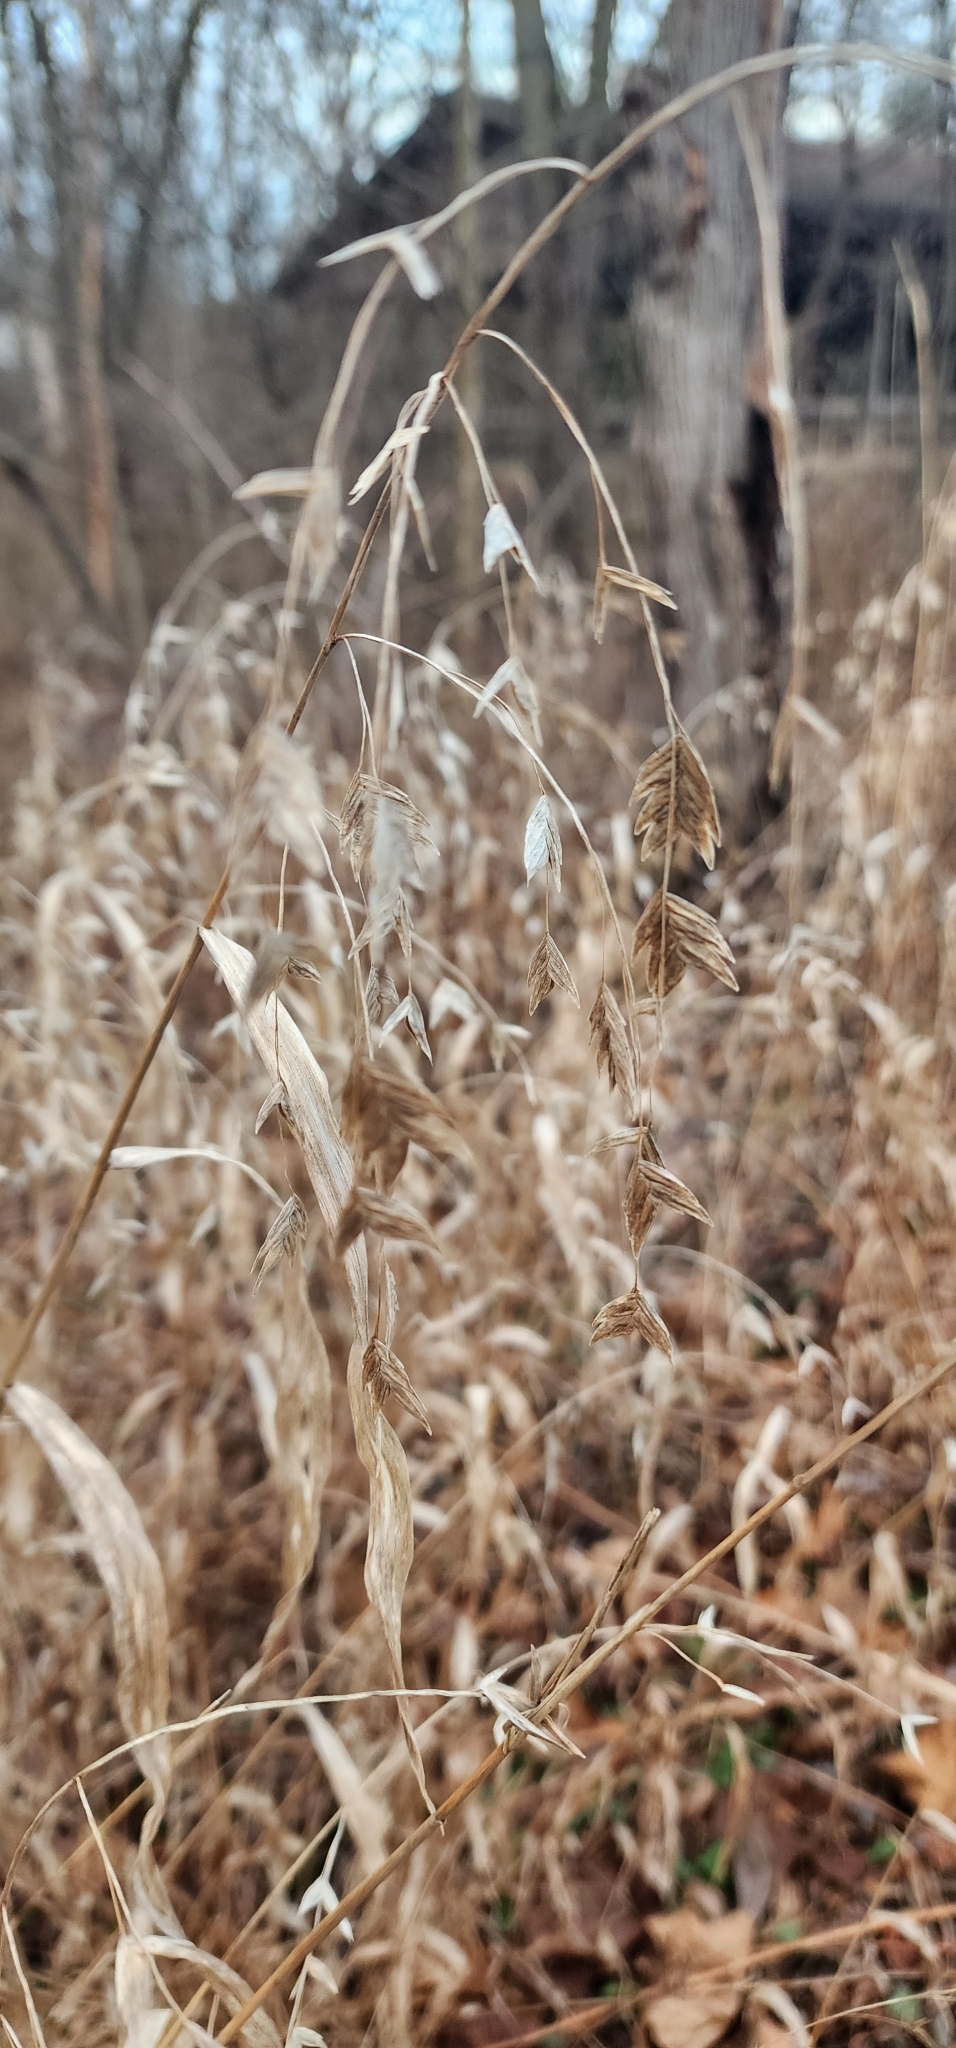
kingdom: Plantae
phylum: Tracheophyta
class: Liliopsida
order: Poales
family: Poaceae
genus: Chasmanthium
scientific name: Chasmanthium latifolium
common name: Broad-leaved chasmanthium
